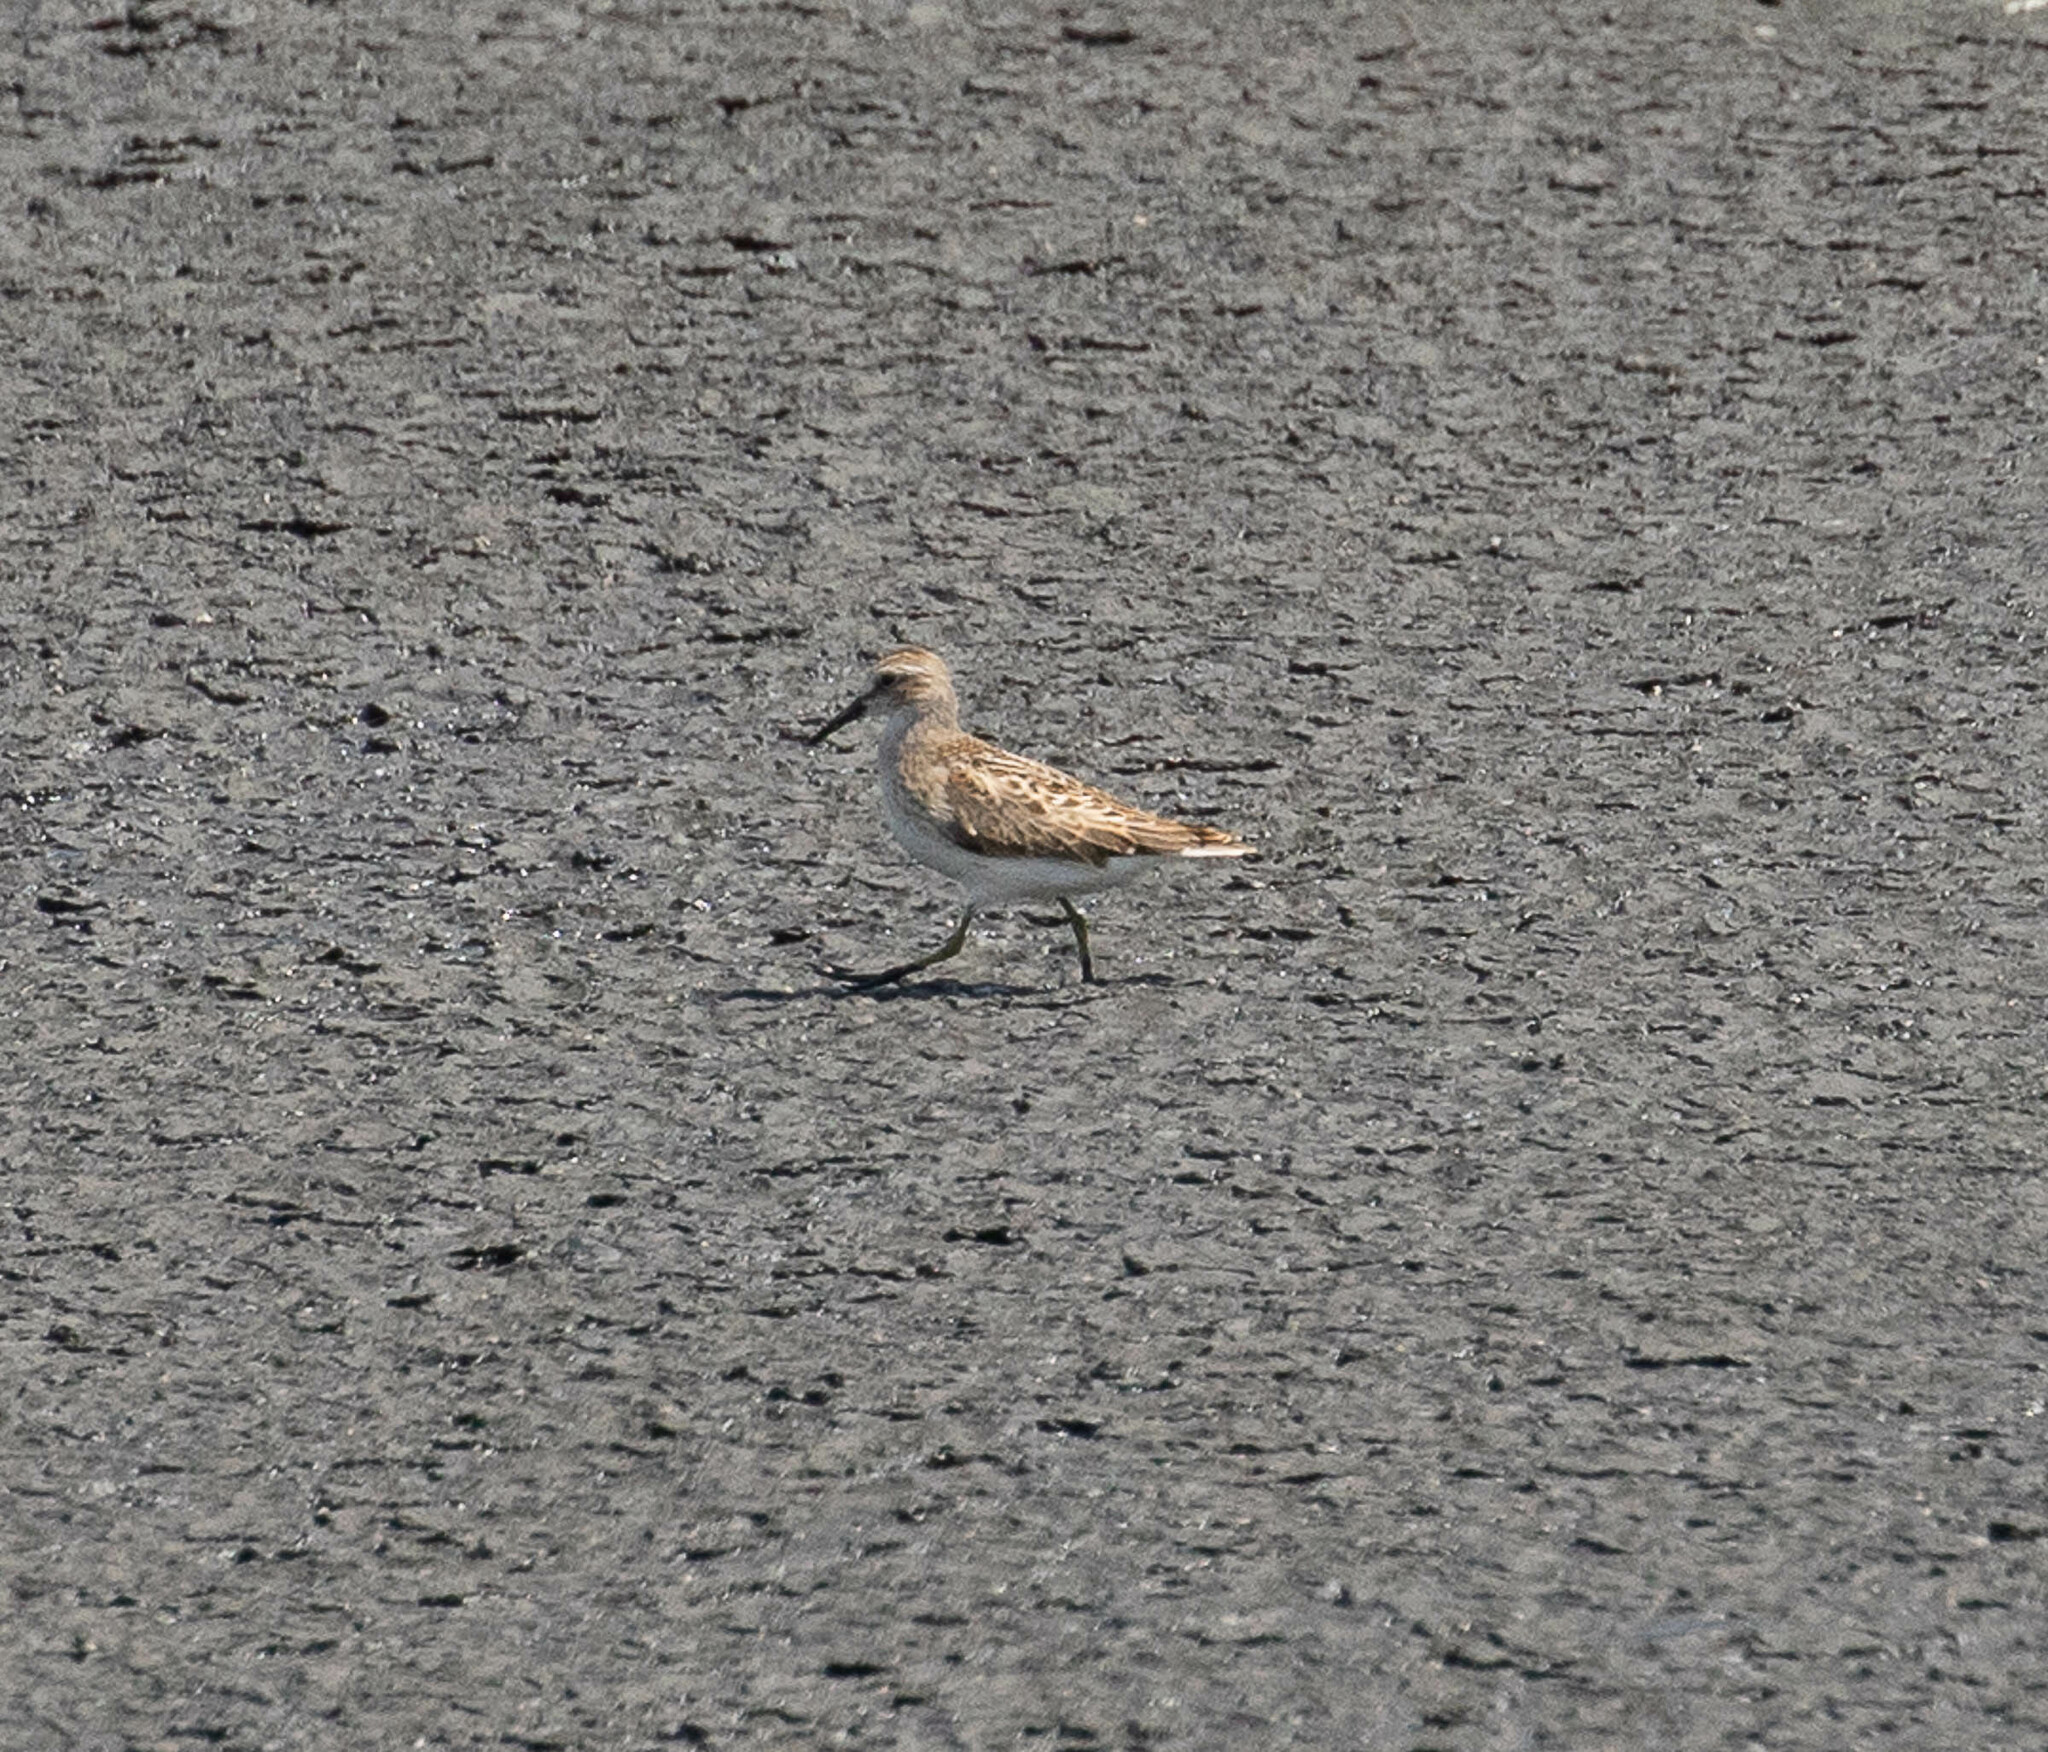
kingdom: Animalia
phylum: Chordata
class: Aves
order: Charadriiformes
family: Scolopacidae
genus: Calidris
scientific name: Calidris minutilla
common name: Least sandpiper
